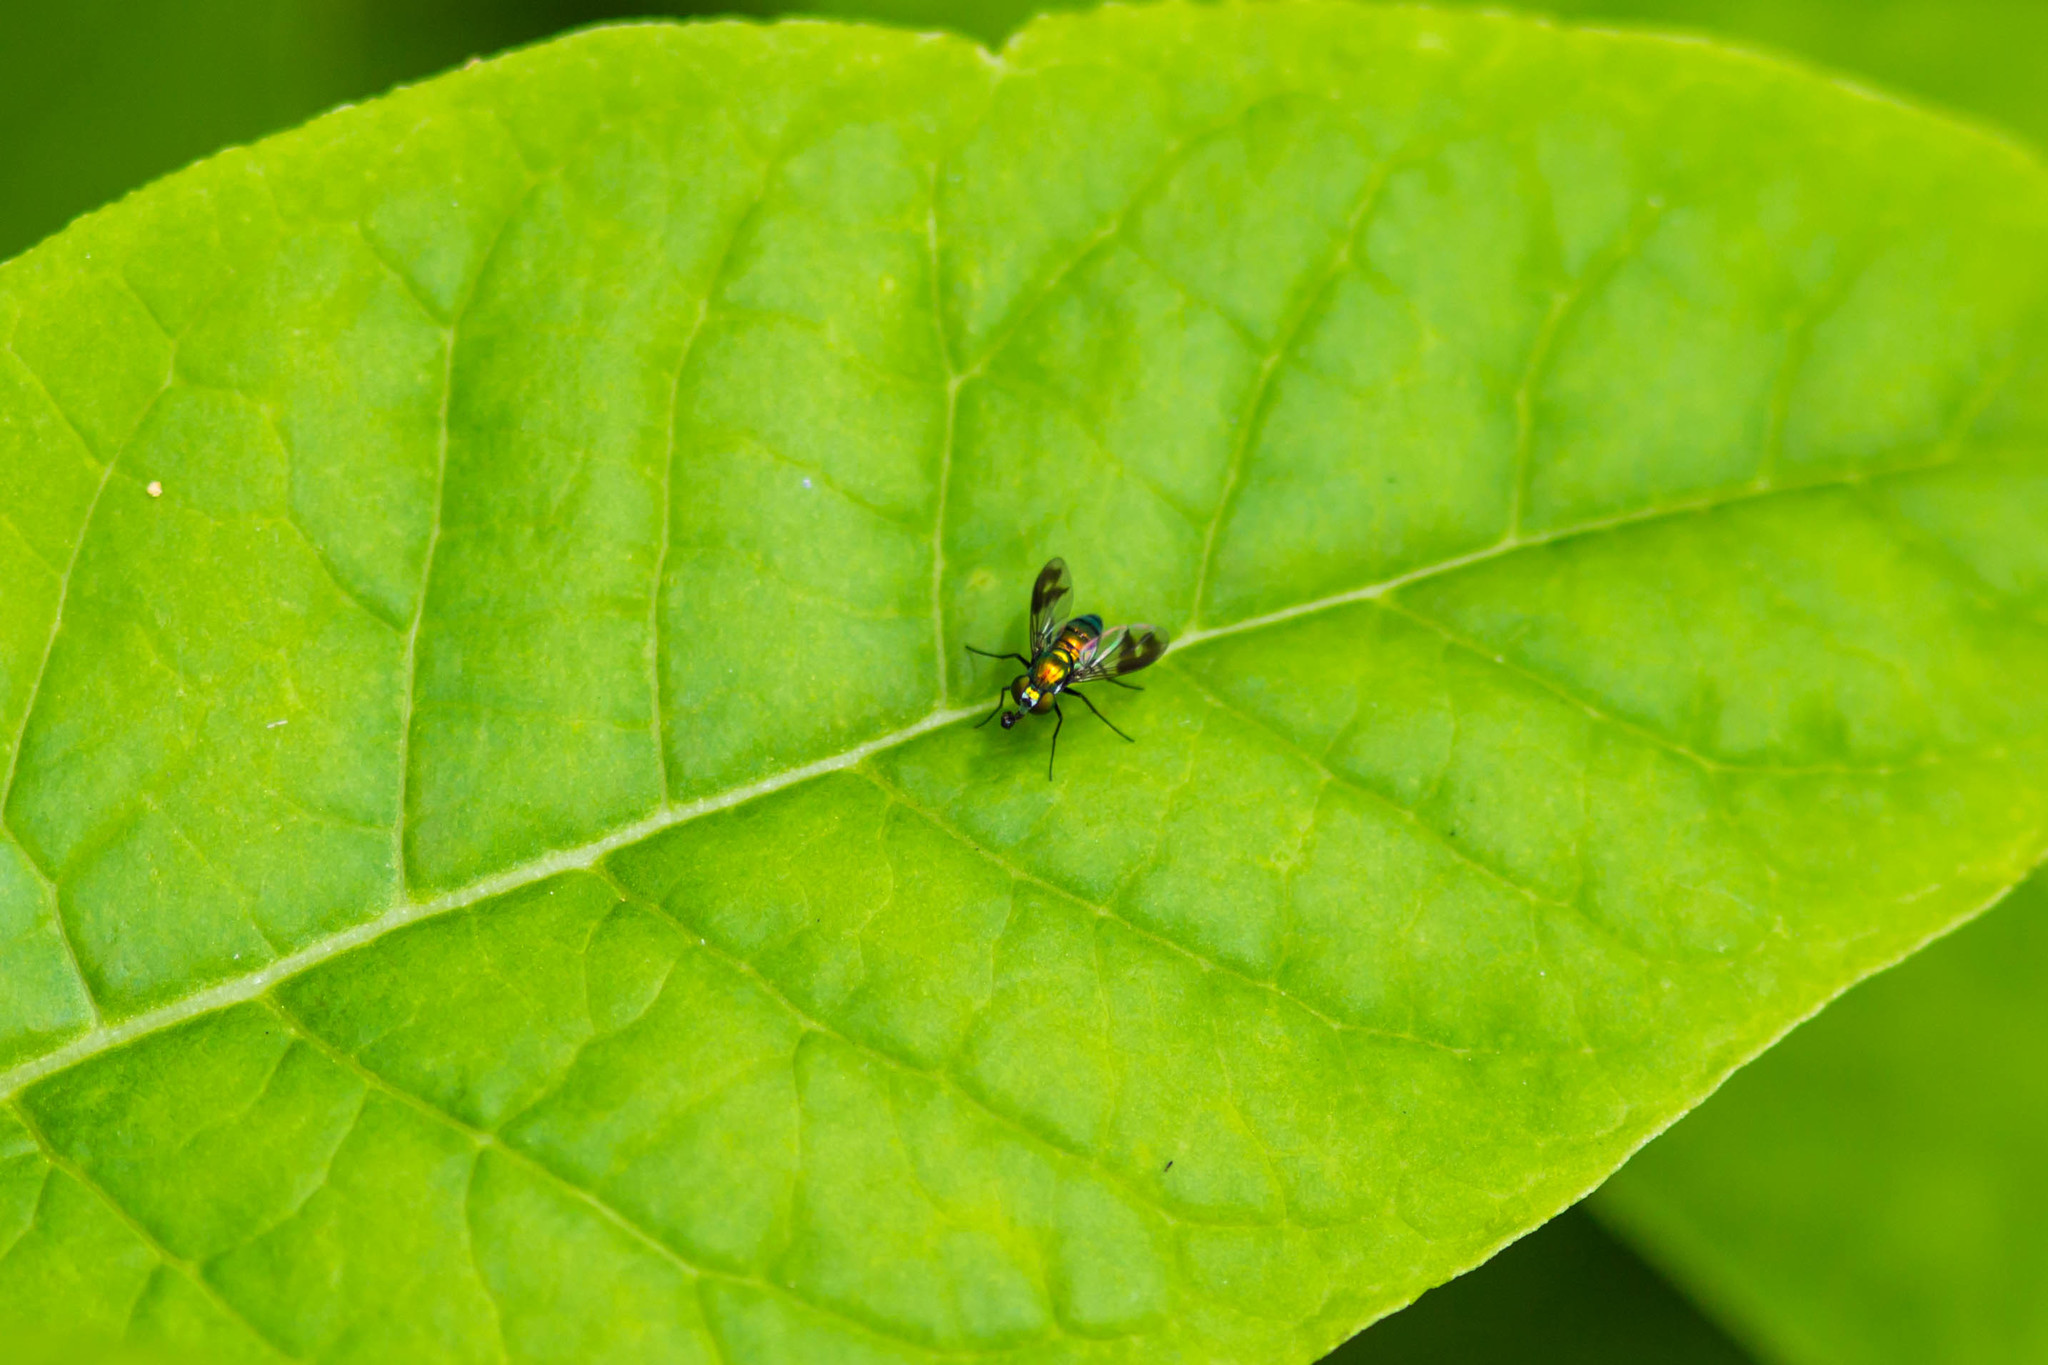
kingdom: Animalia
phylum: Arthropoda
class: Insecta
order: Diptera
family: Dolichopodidae
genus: Condylostylus
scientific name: Condylostylus patibulatus
